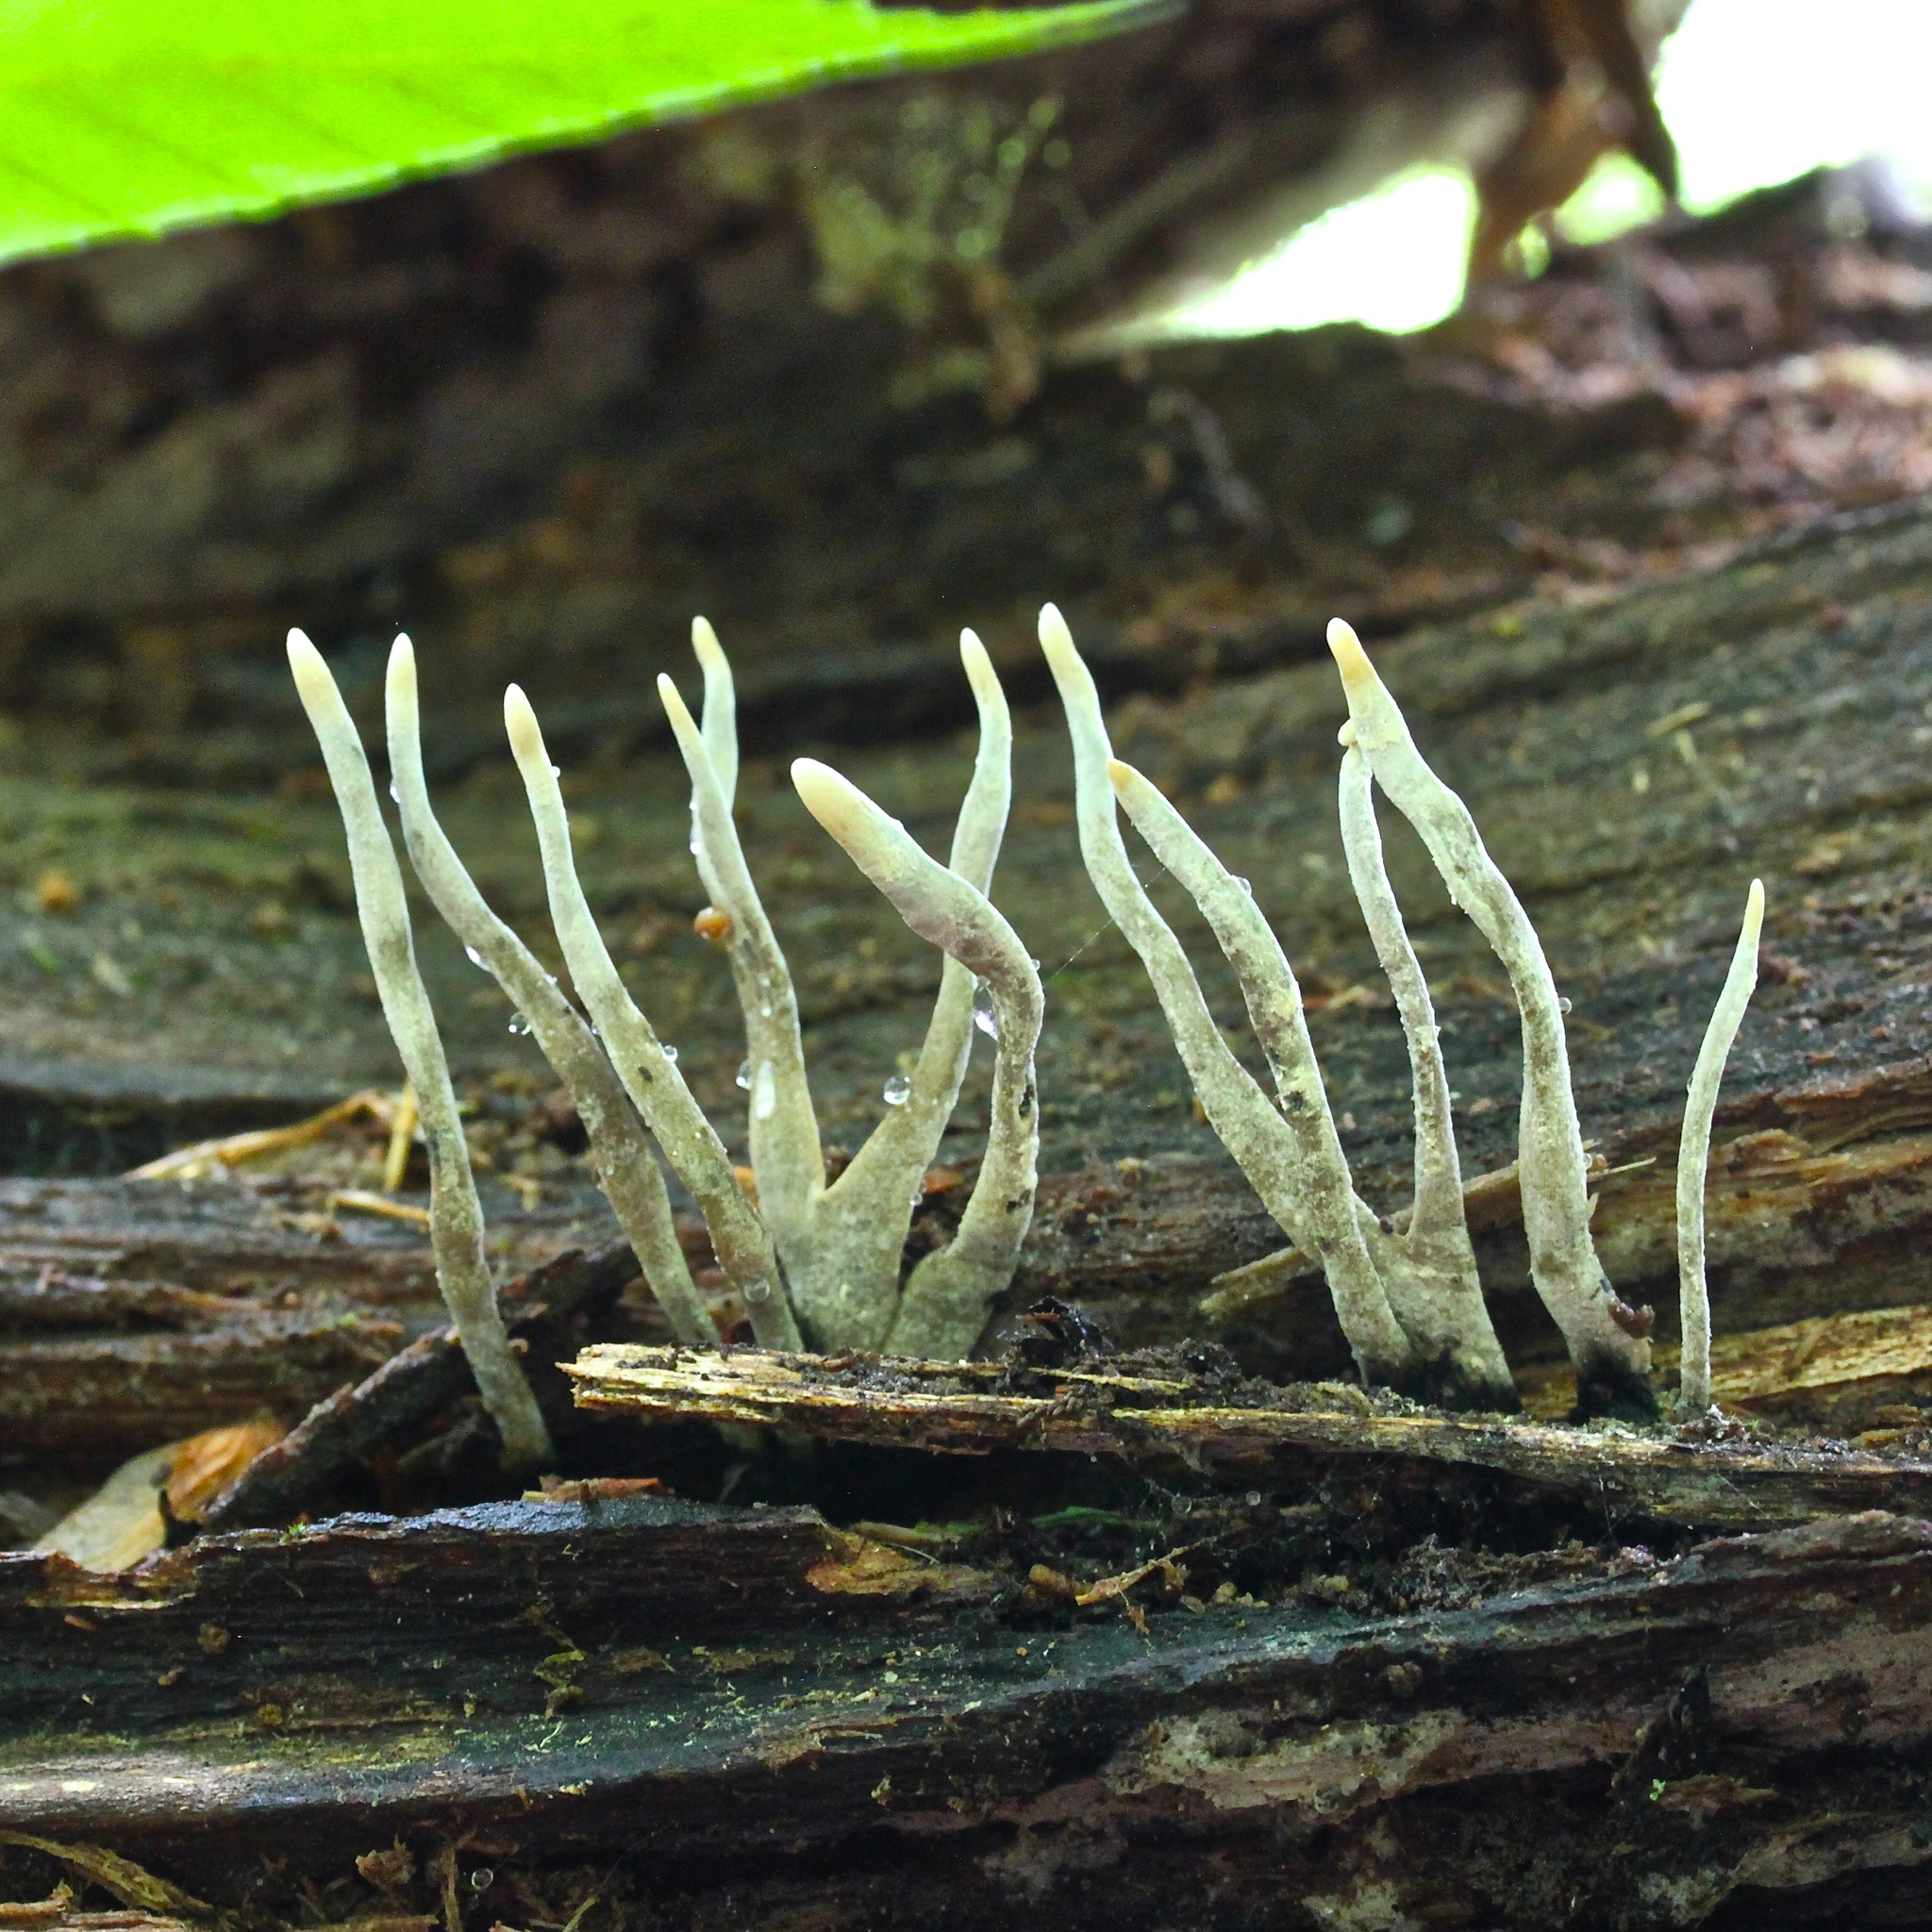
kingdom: Fungi
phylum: Ascomycota
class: Sordariomycetes
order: Xylariales
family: Xylariaceae
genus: Xylaria
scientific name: Xylaria hypoxylon
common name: Candle-snuff fungus
